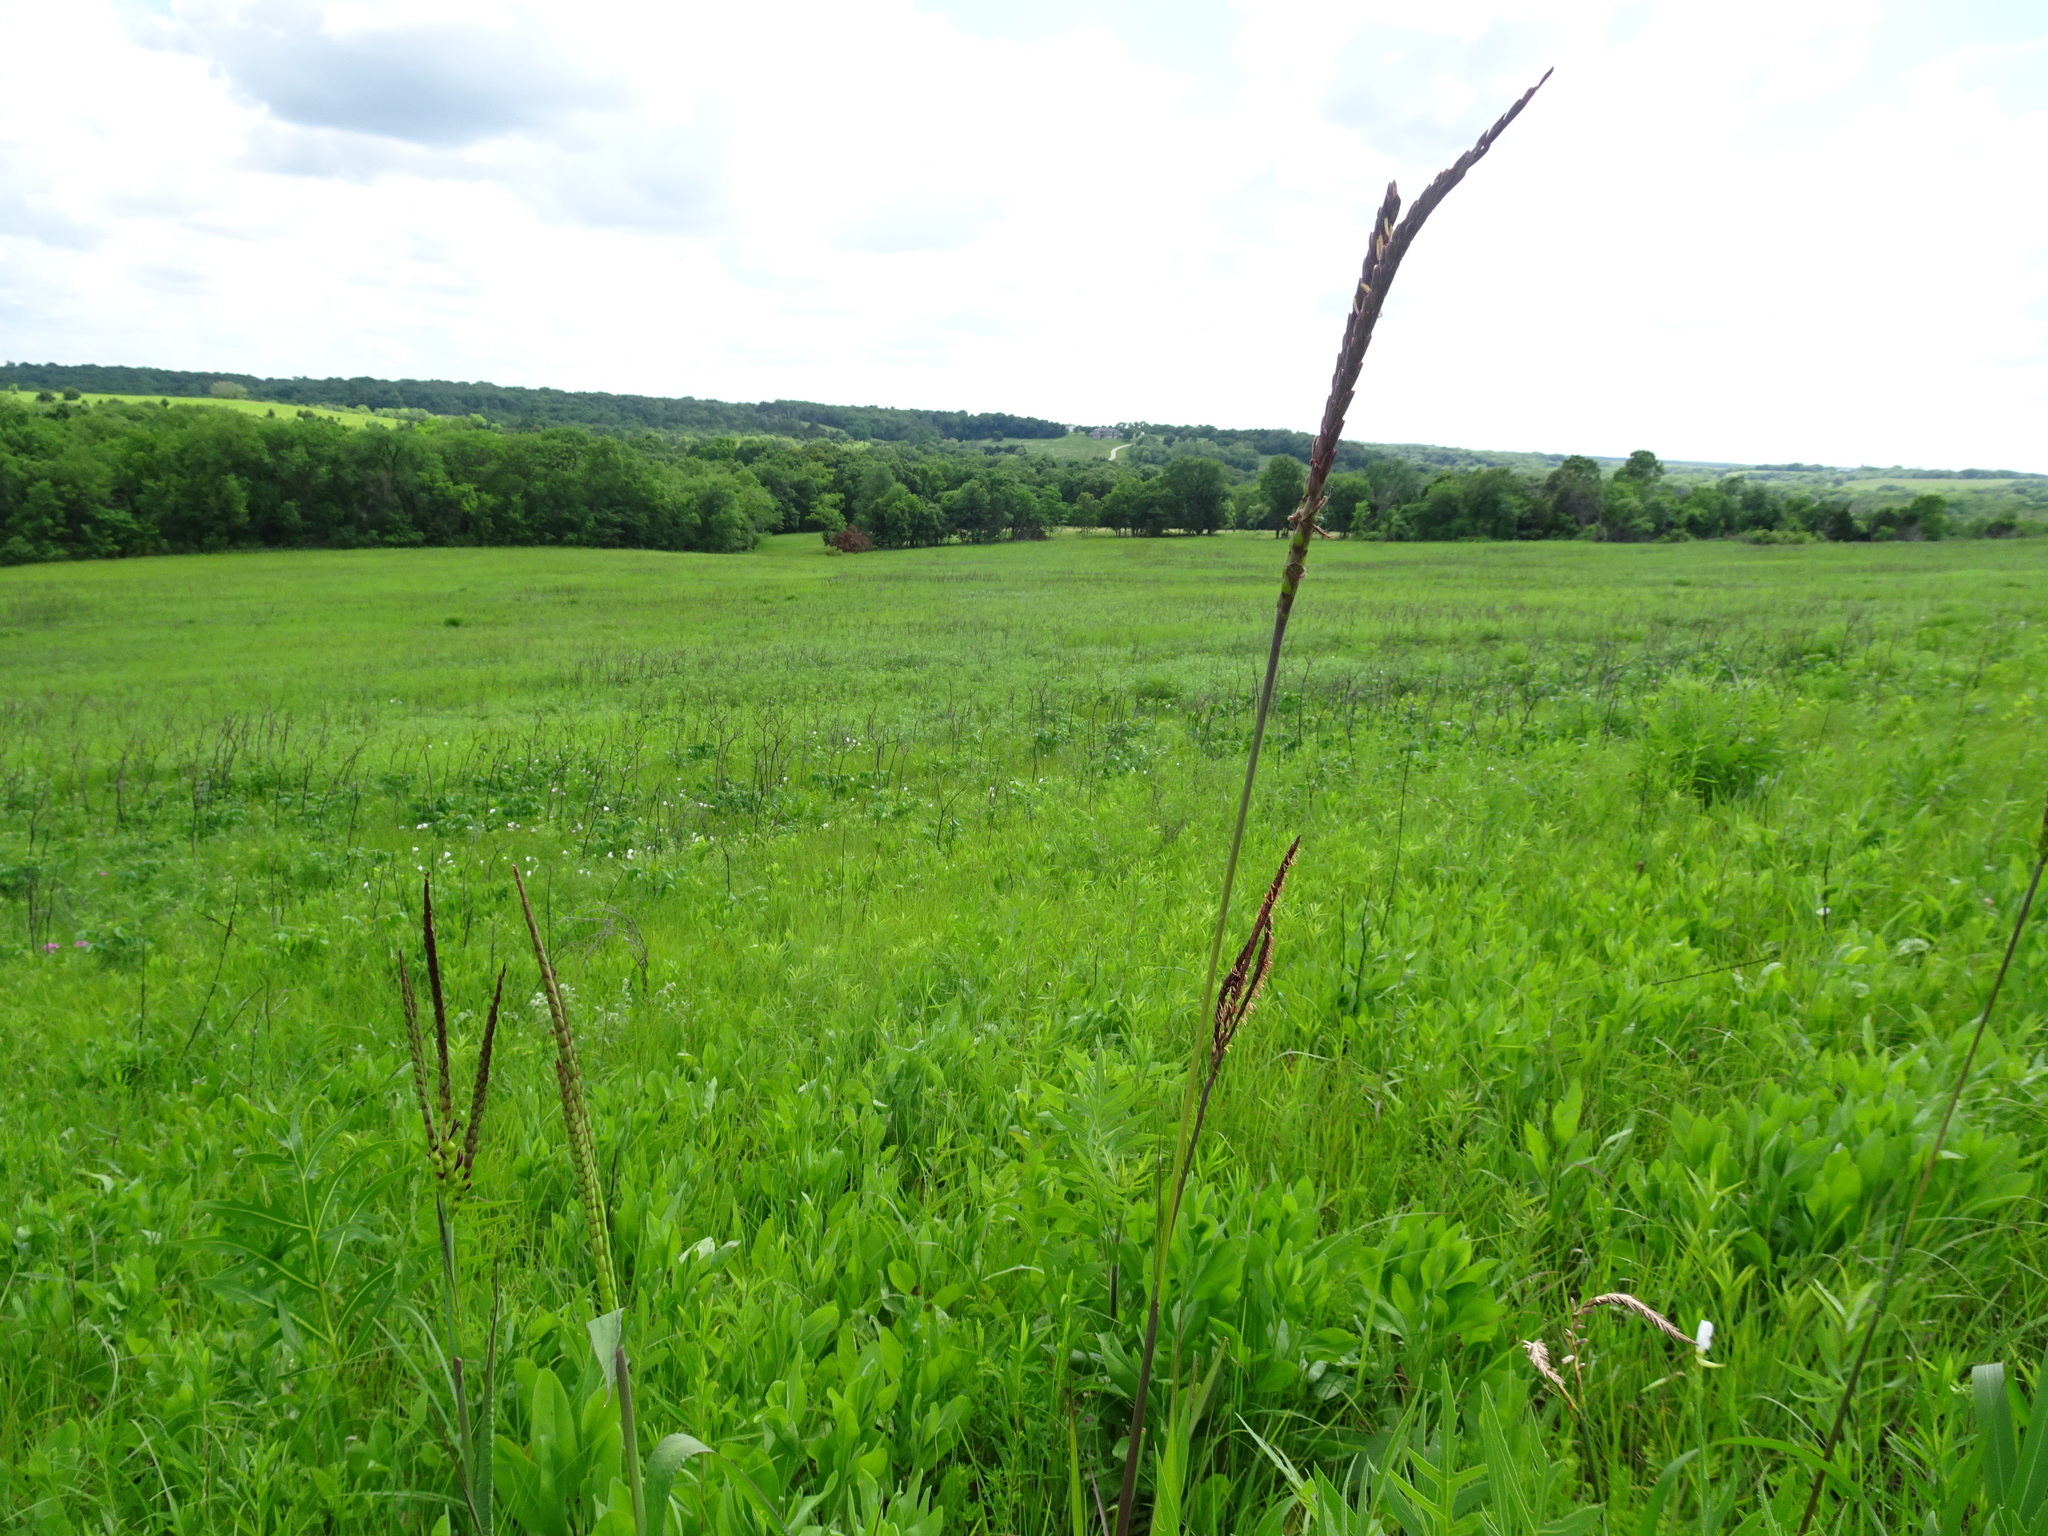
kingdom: Plantae
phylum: Tracheophyta
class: Liliopsida
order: Poales
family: Poaceae
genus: Tripsacum
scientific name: Tripsacum dactyloides
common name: Buffalo-grass
